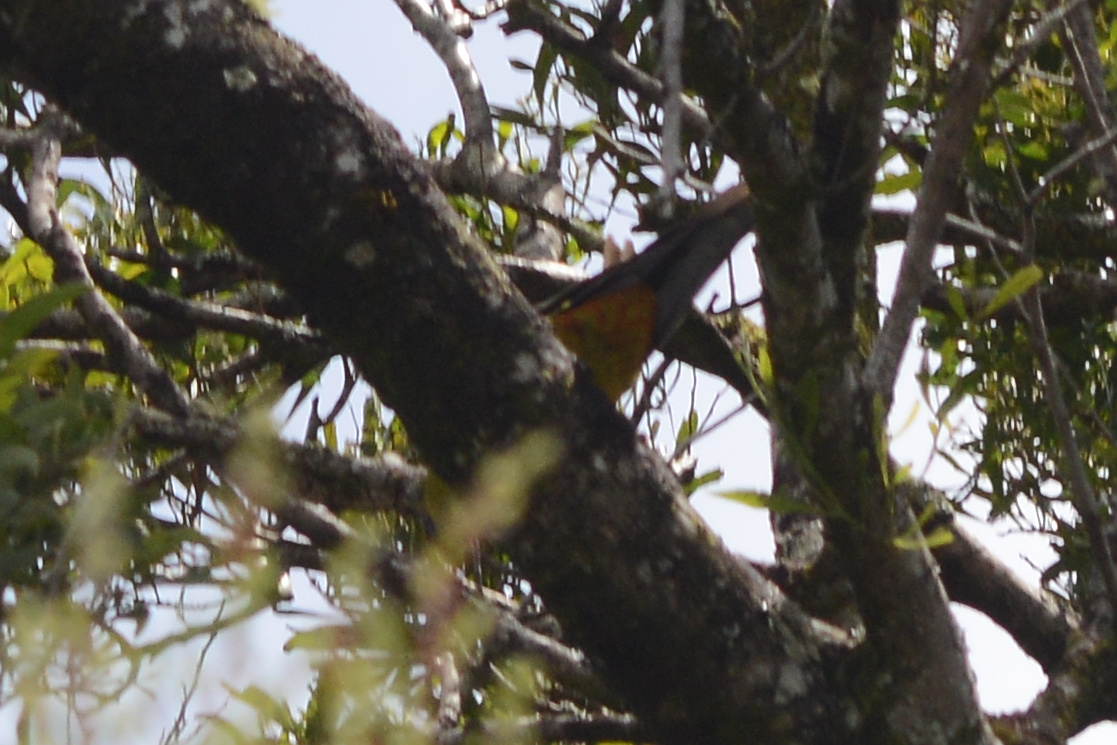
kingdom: Animalia
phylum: Chordata
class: Aves
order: Psittaciformes
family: Psittacidae
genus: Platycercus
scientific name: Platycercus caledonicus
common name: Green rosella
